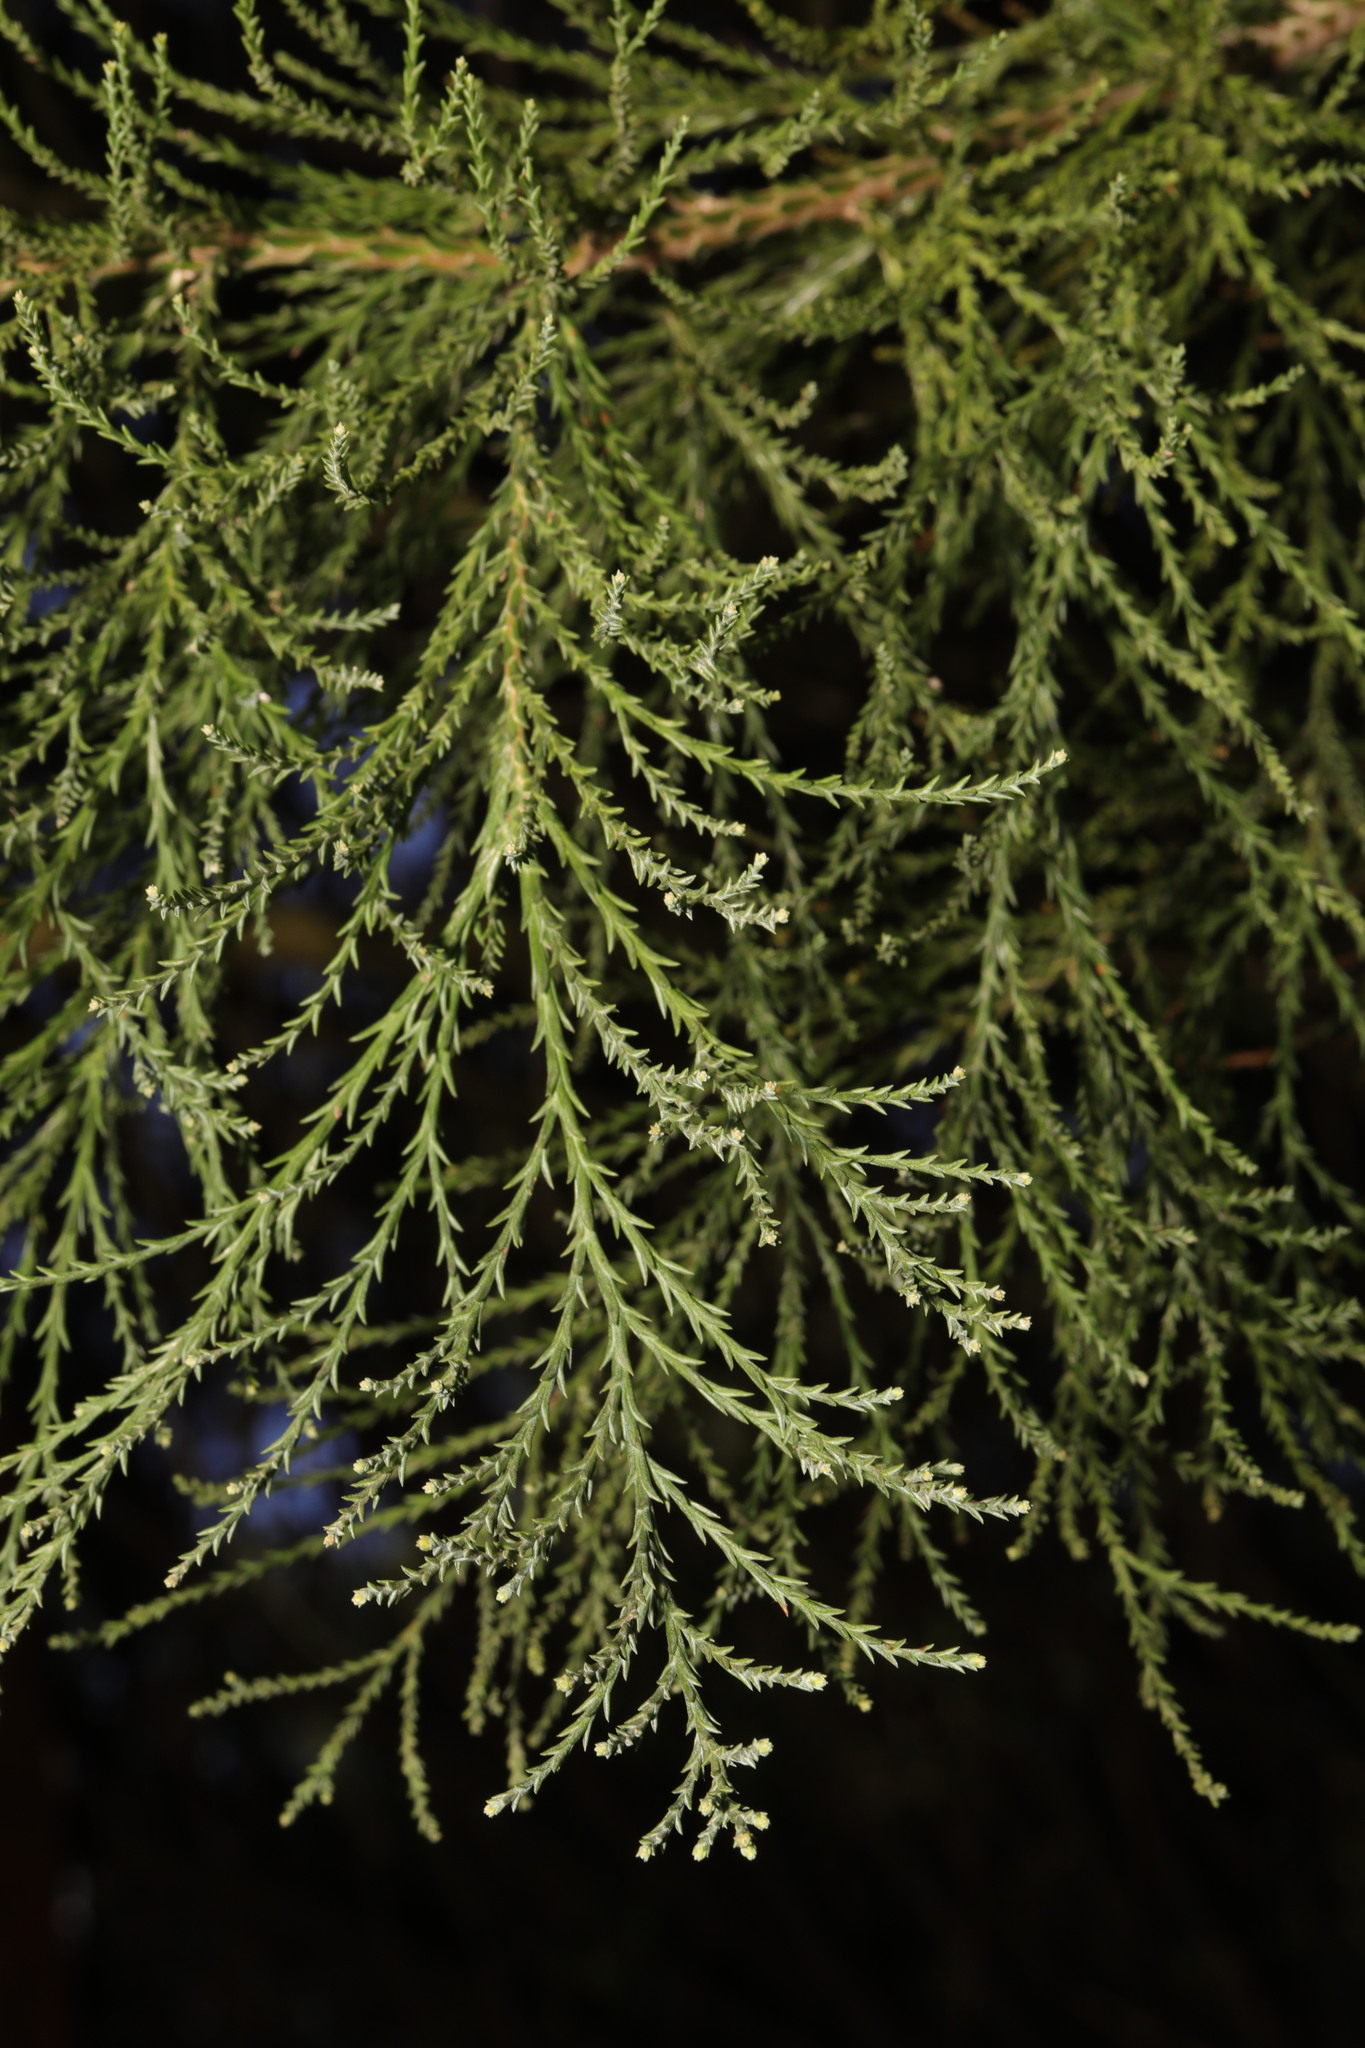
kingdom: Plantae
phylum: Tracheophyta
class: Pinopsida
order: Pinales
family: Cupressaceae
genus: Sequoiadendron
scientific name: Sequoiadendron giganteum
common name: Wellingtonia
